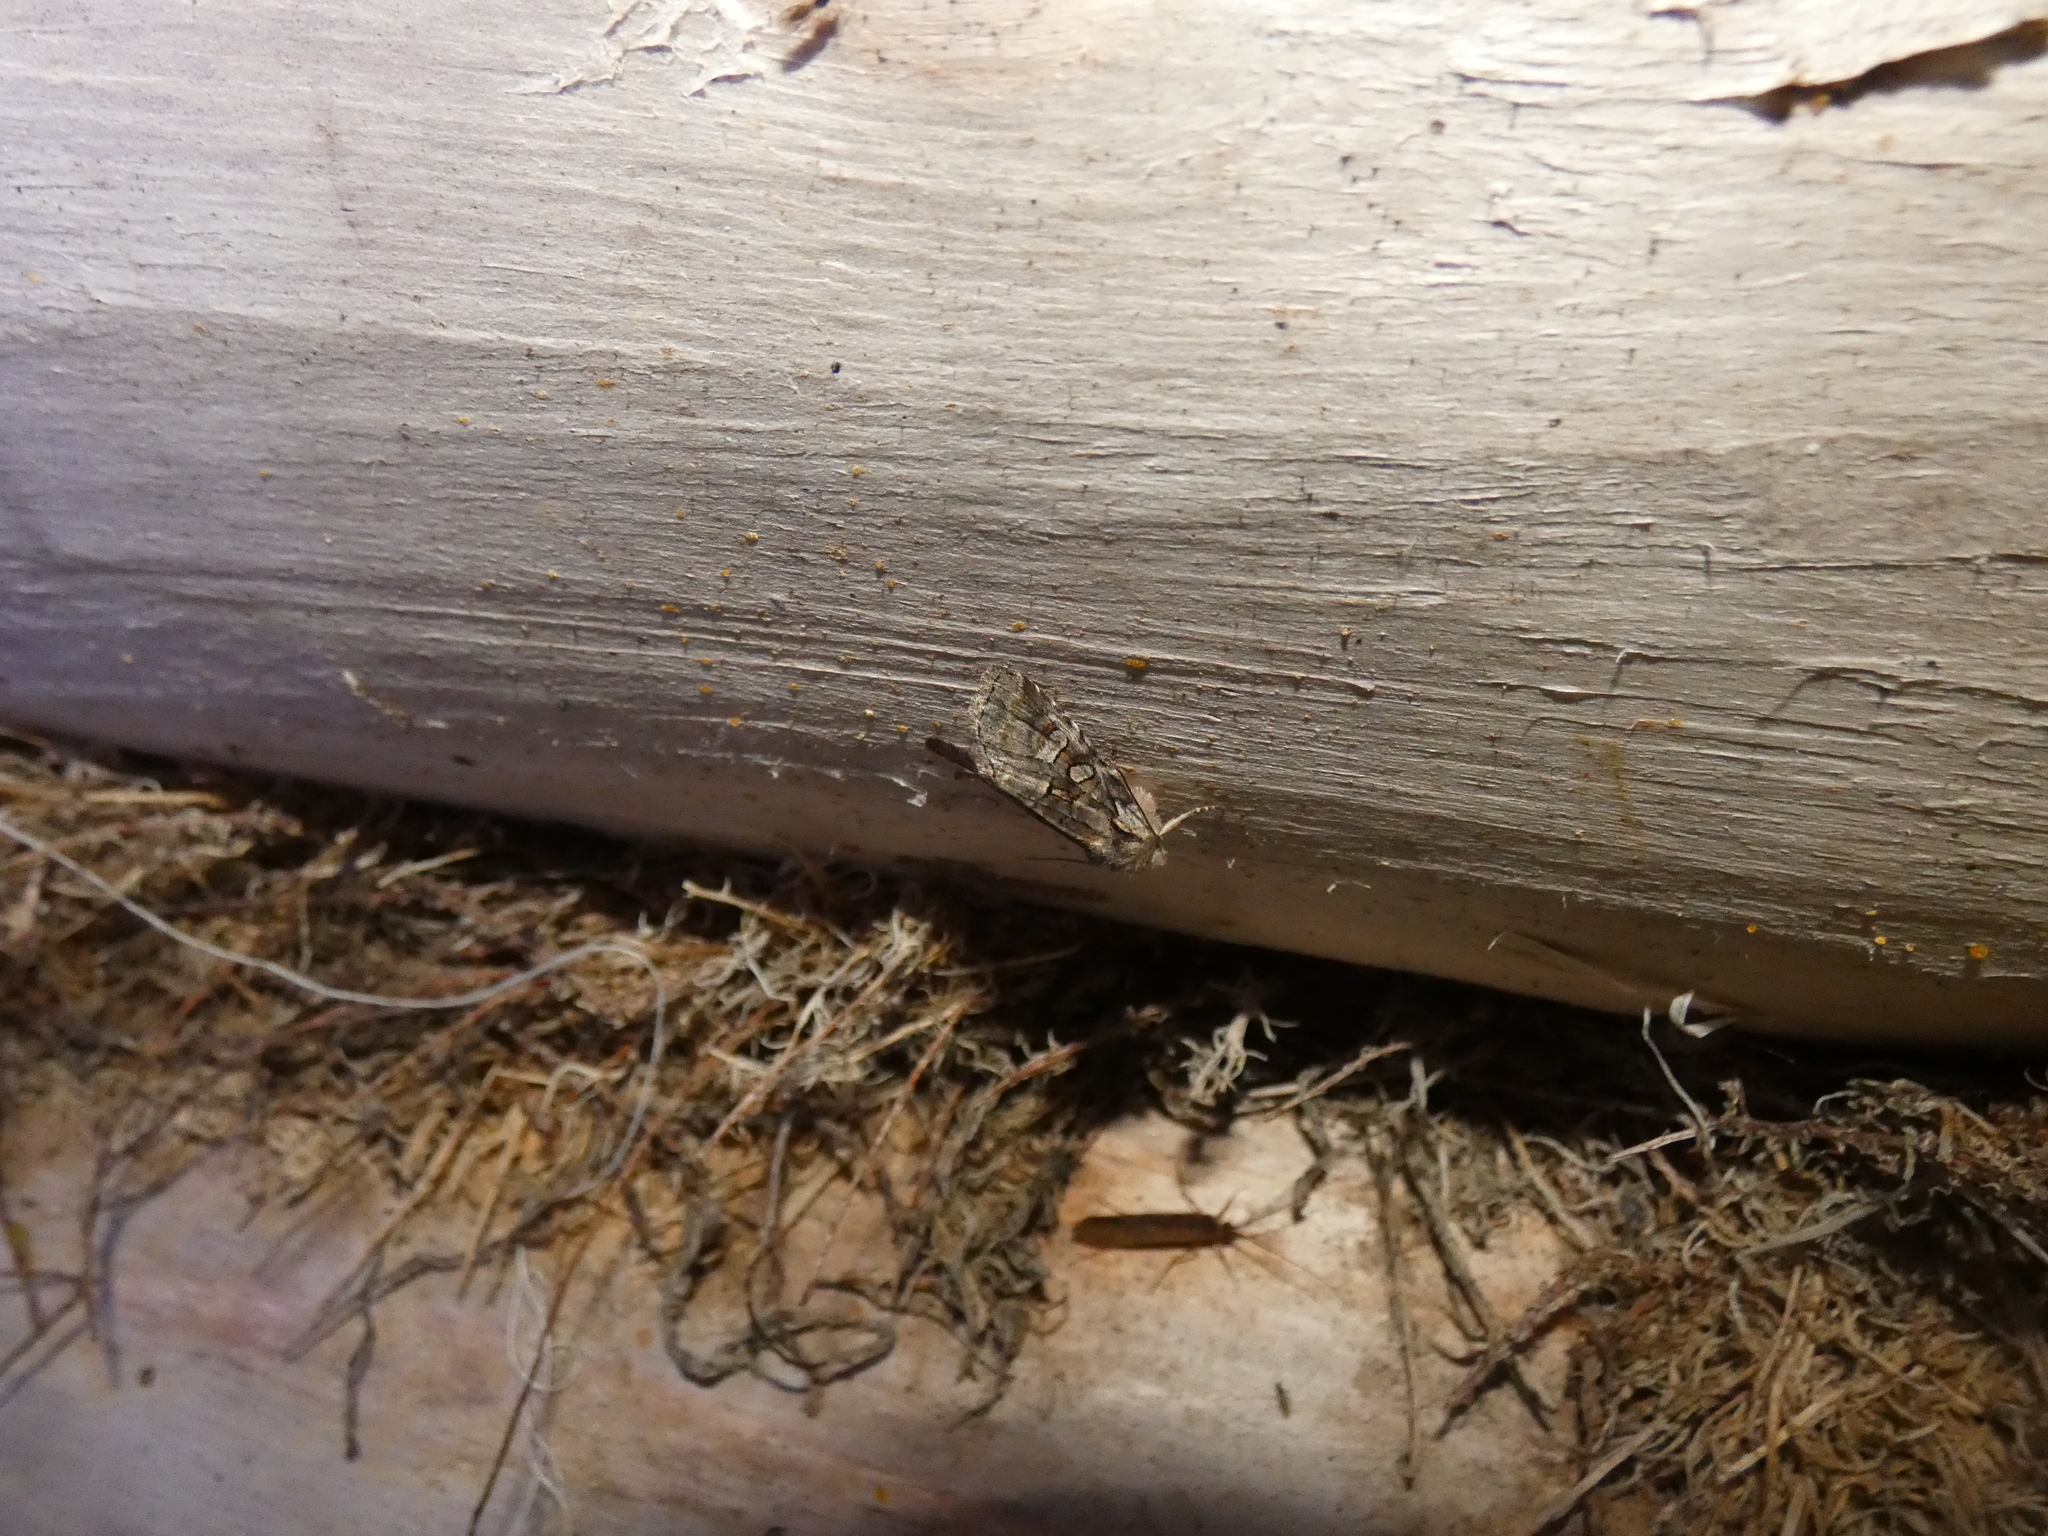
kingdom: Animalia
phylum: Arthropoda
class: Insecta
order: Lepidoptera
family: Noctuidae
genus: Brachylomia
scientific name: Brachylomia viminalis
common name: Minor shoulder-knot
